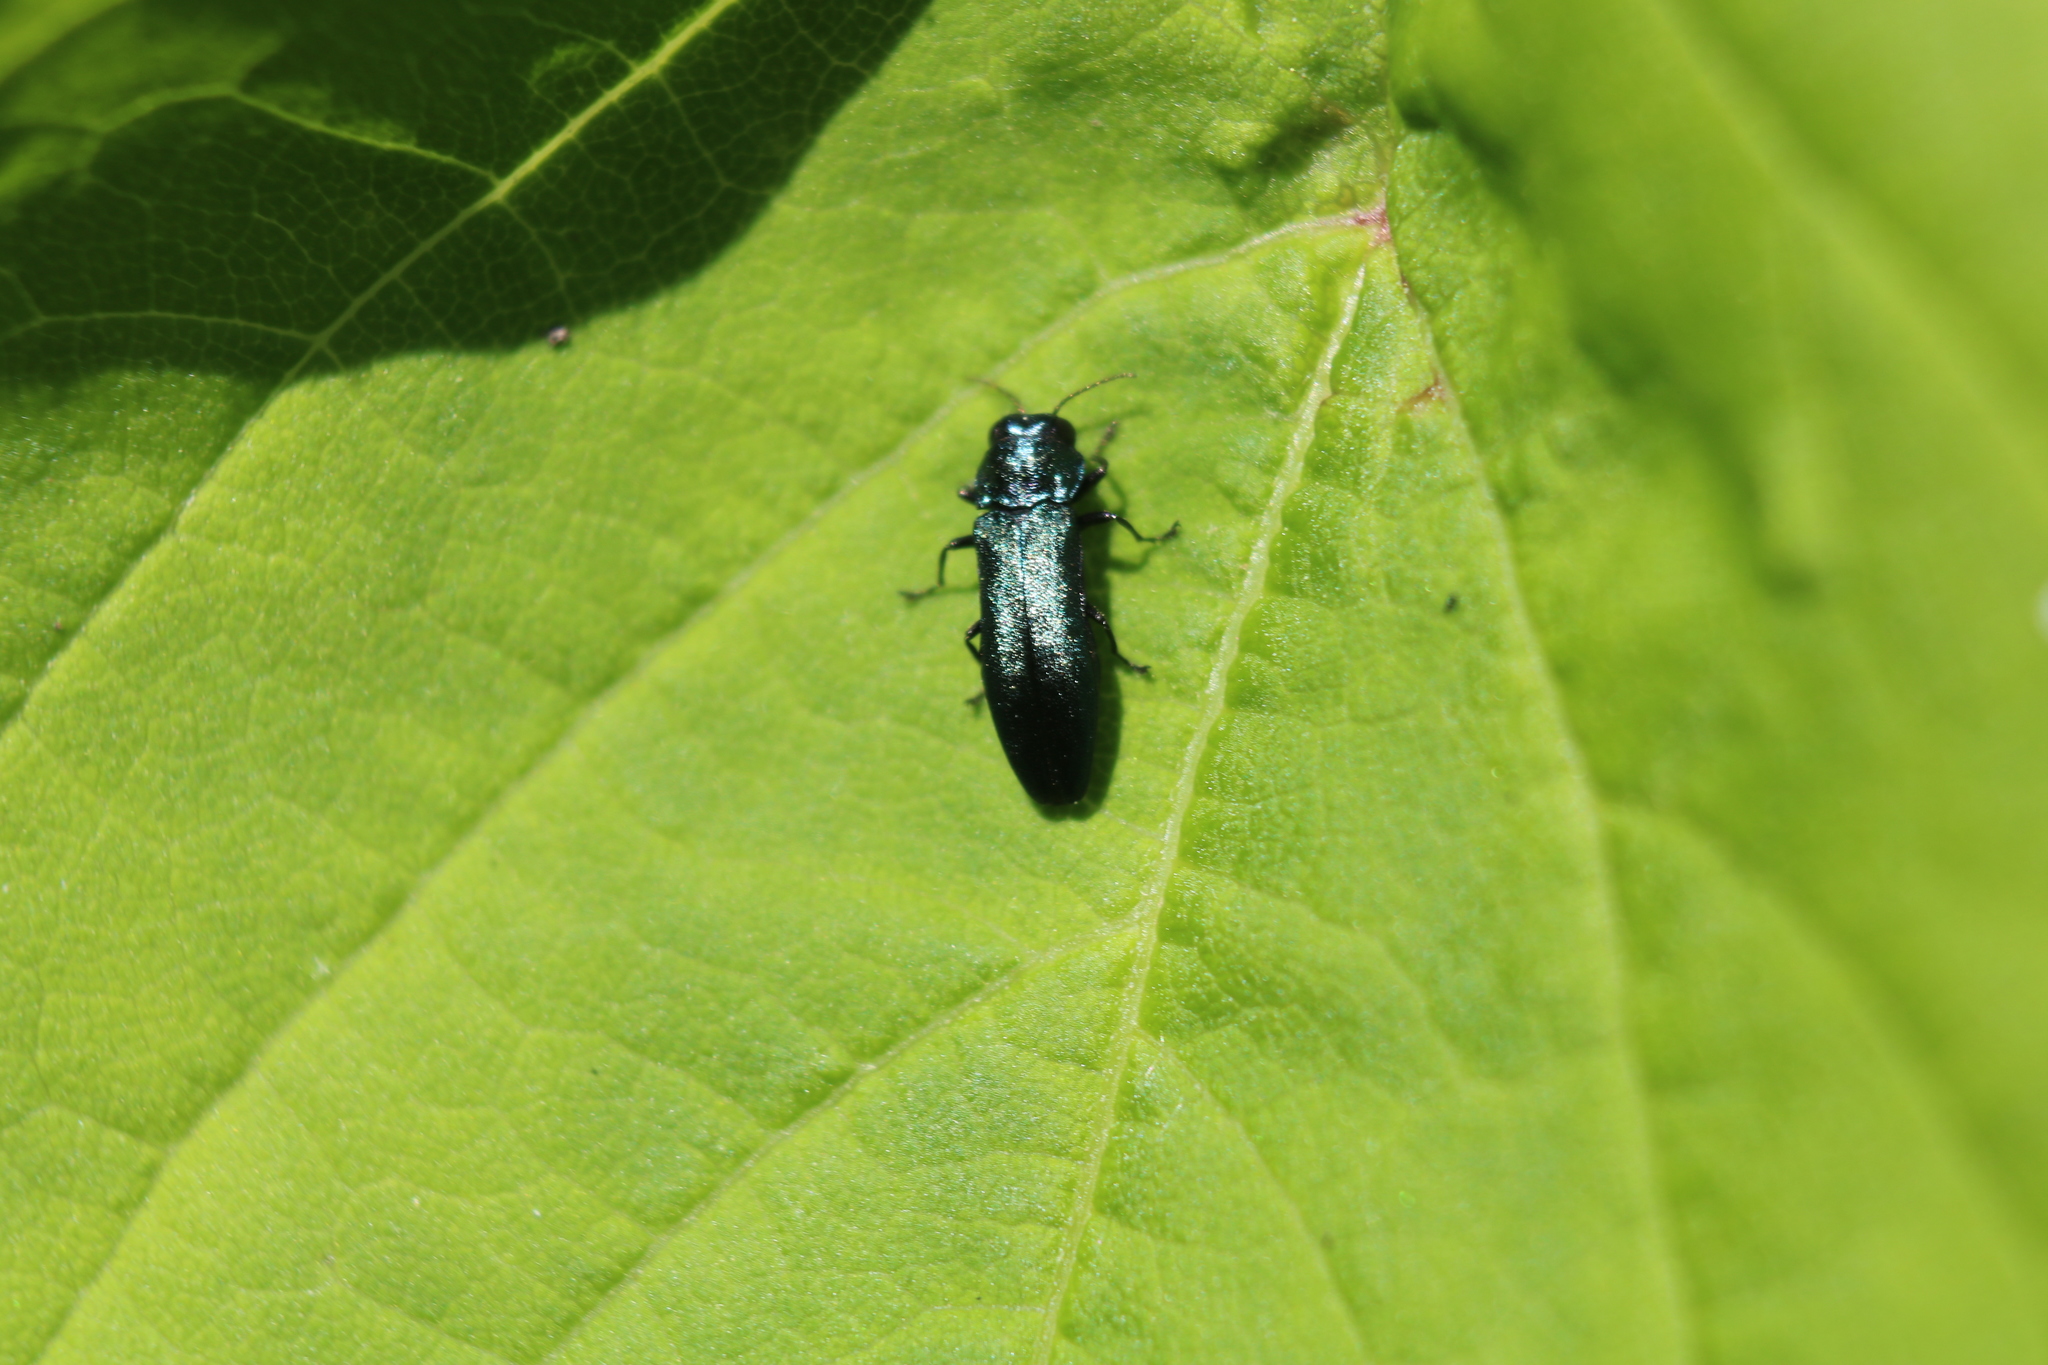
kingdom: Animalia
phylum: Arthropoda
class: Insecta
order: Coleoptera
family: Buprestidae
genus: Agrilus
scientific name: Agrilus cyanescens
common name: Bluish borer beetle
